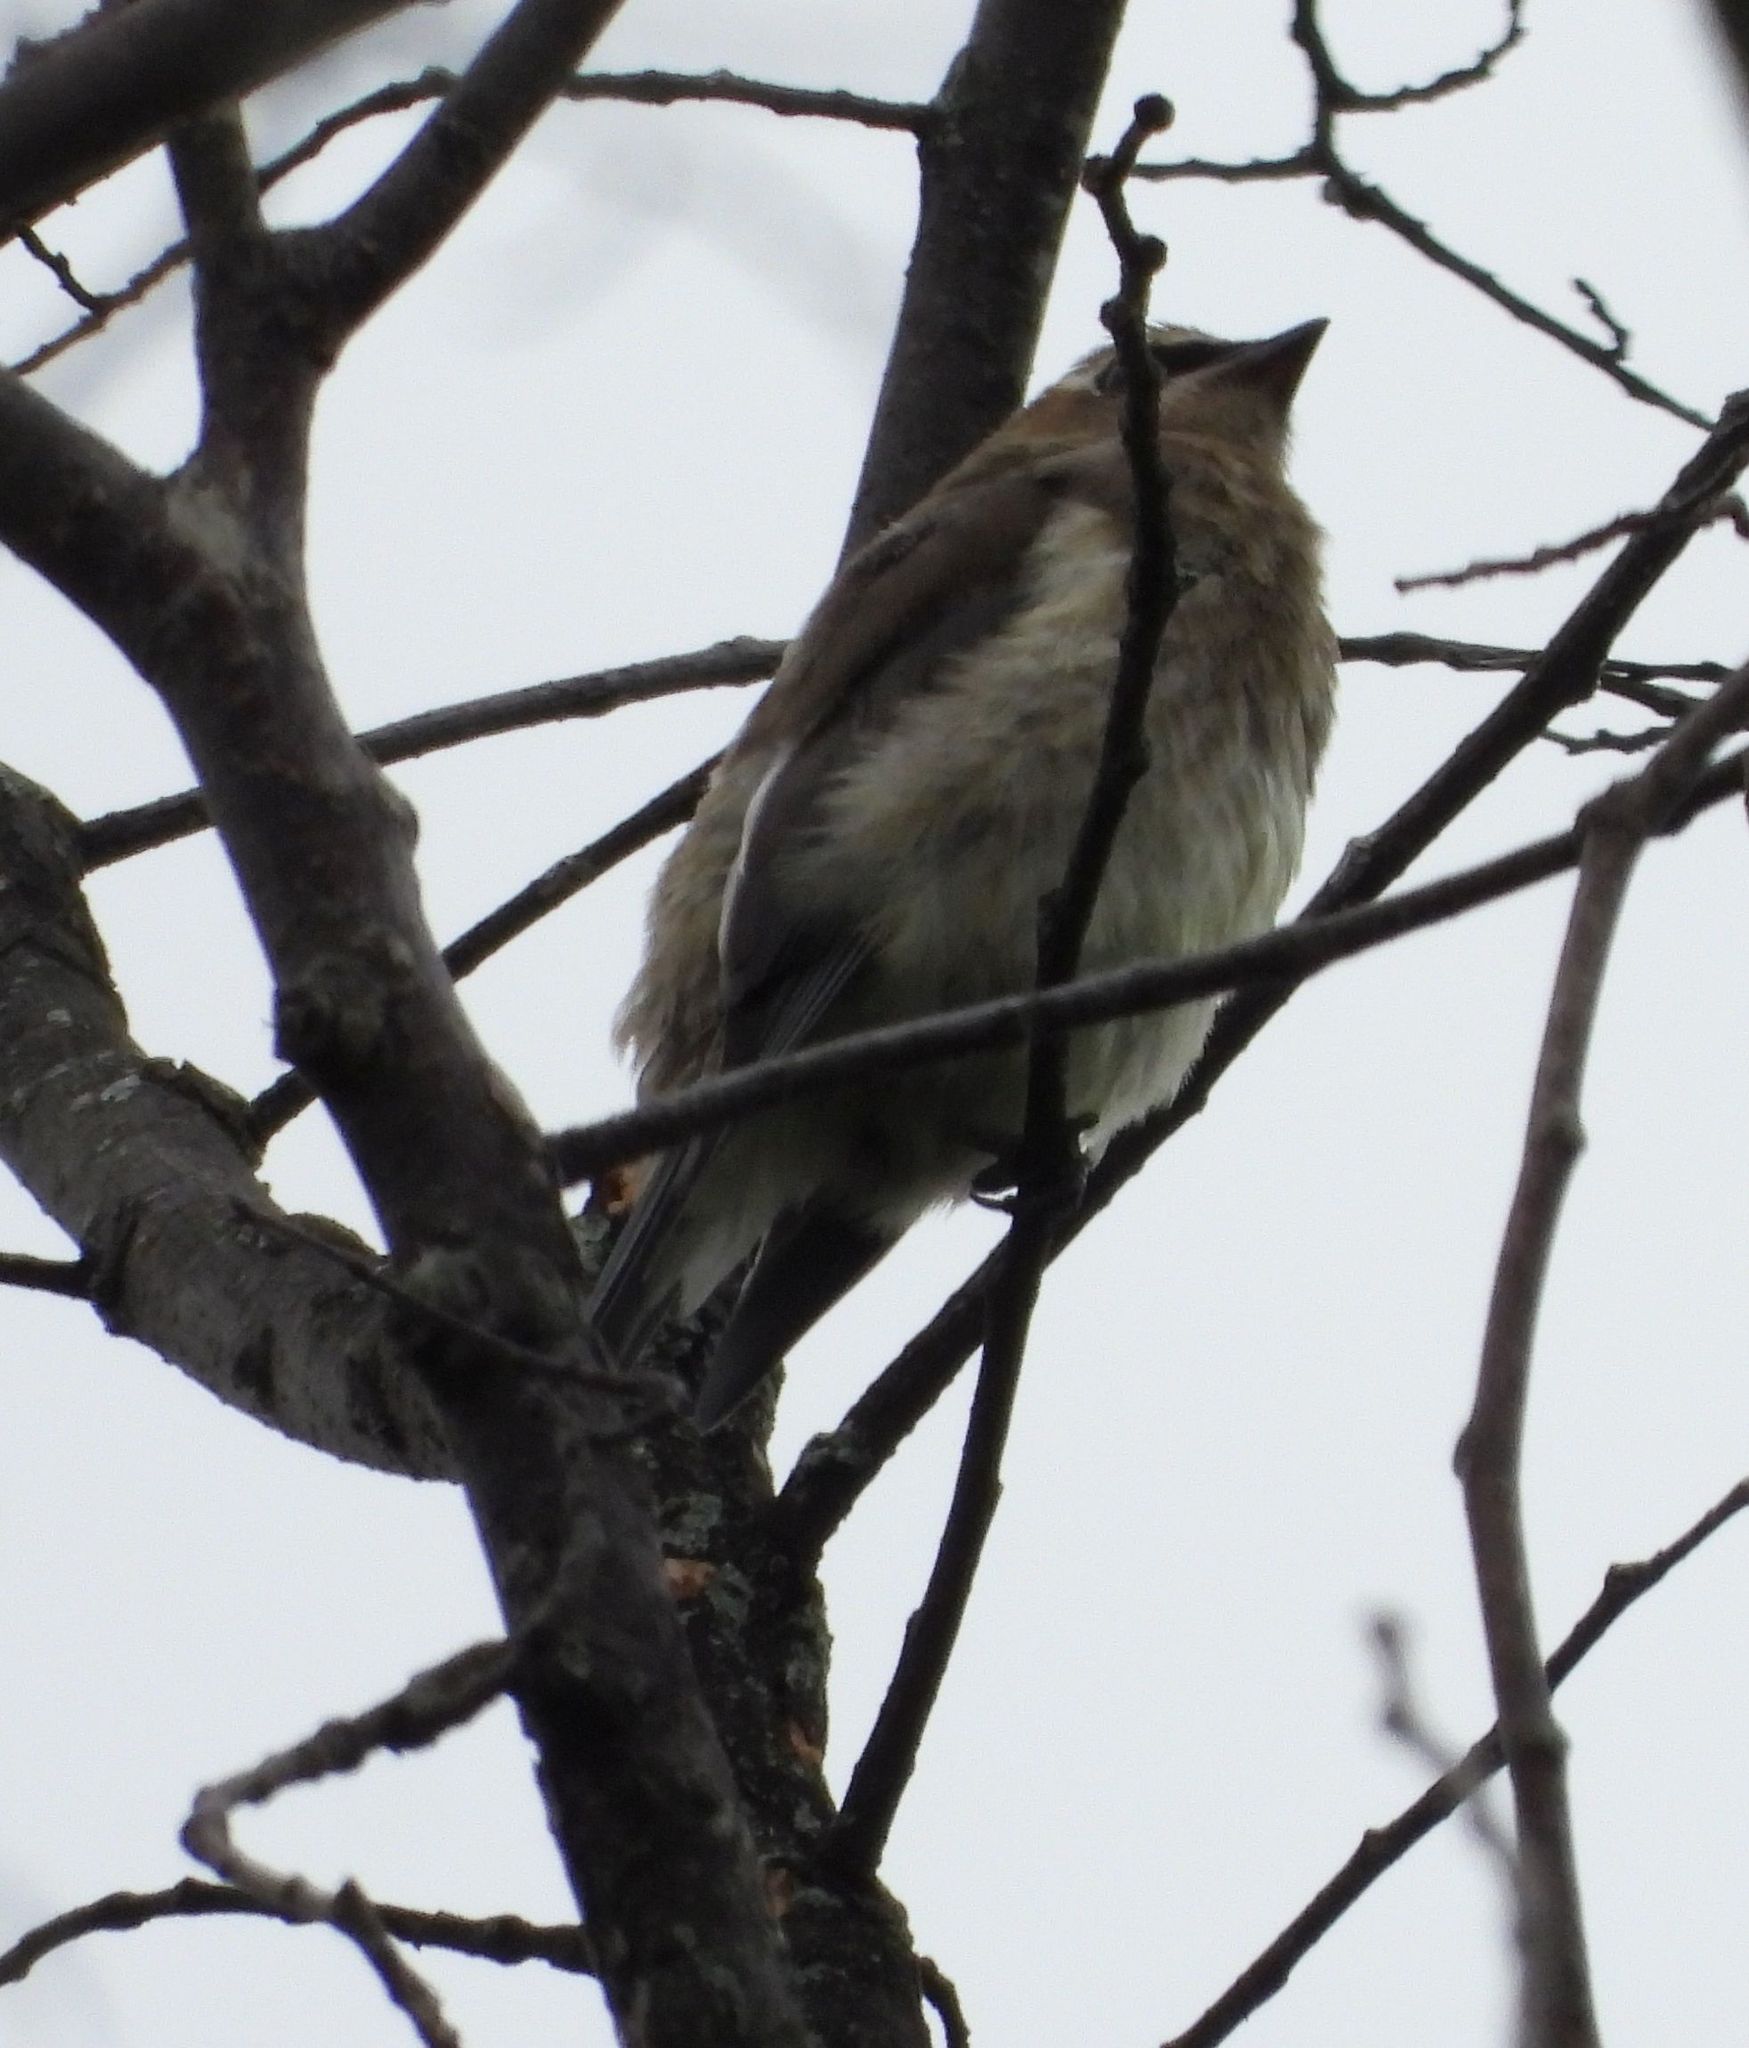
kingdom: Animalia
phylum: Chordata
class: Aves
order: Passeriformes
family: Bombycillidae
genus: Bombycilla
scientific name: Bombycilla cedrorum
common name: Cedar waxwing
